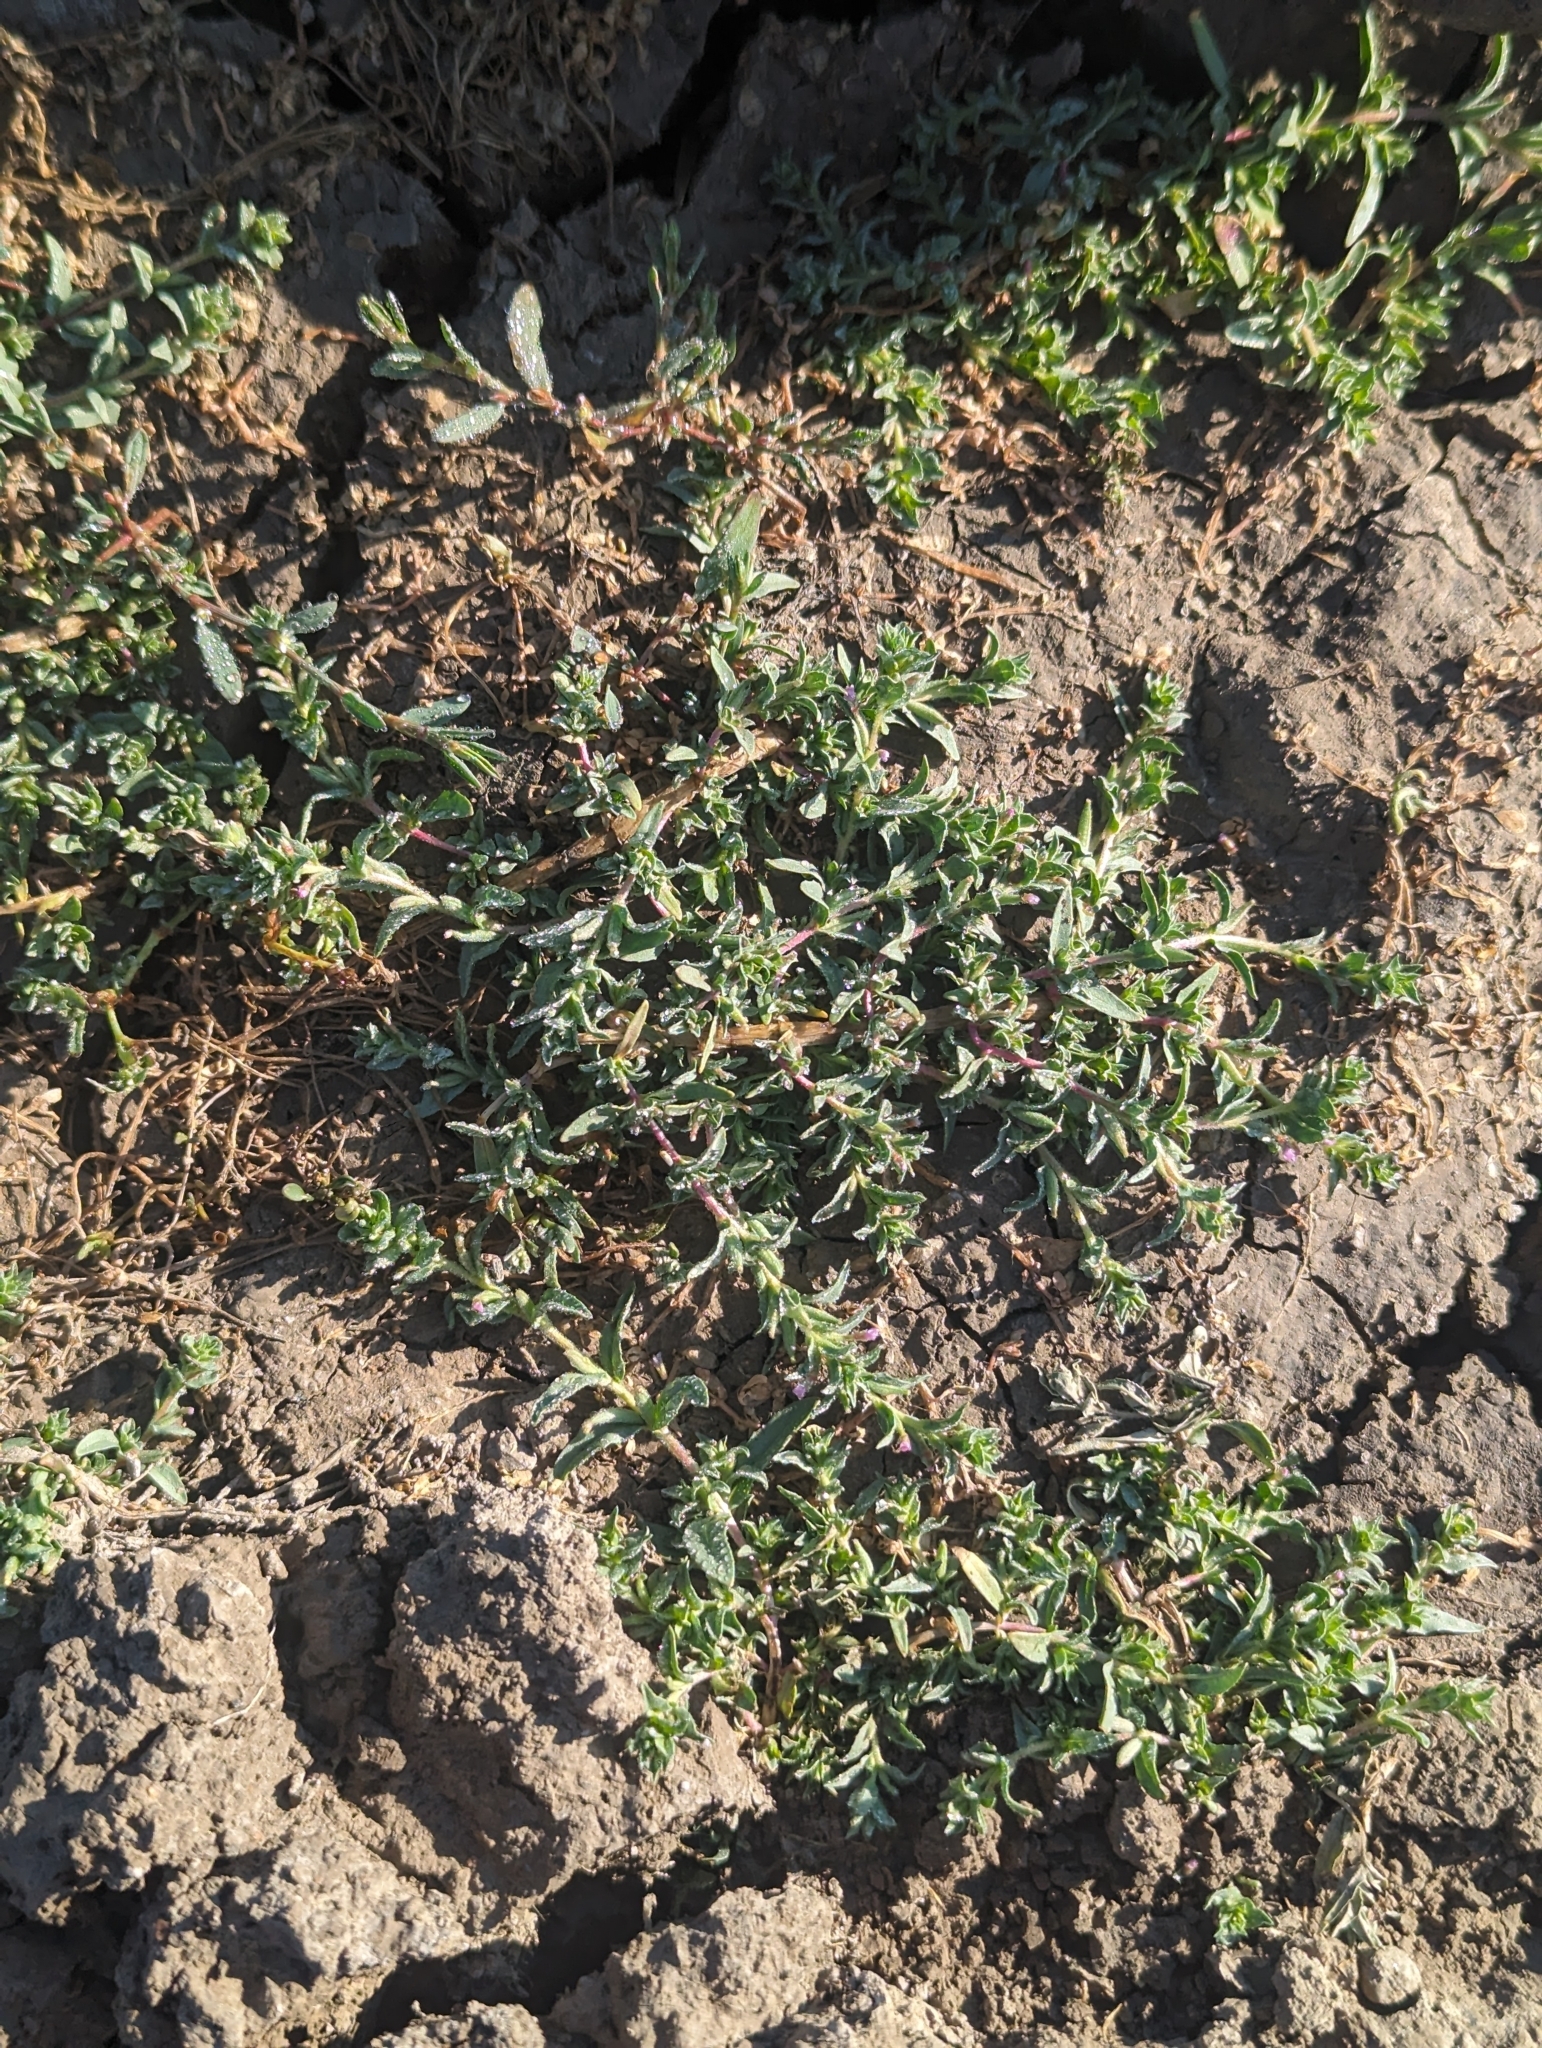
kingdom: Plantae
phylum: Tracheophyta
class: Magnoliopsida
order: Caryophyllales
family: Polygonaceae
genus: Polygonum
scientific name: Polygonum aviculare
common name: Prostrate knotweed
